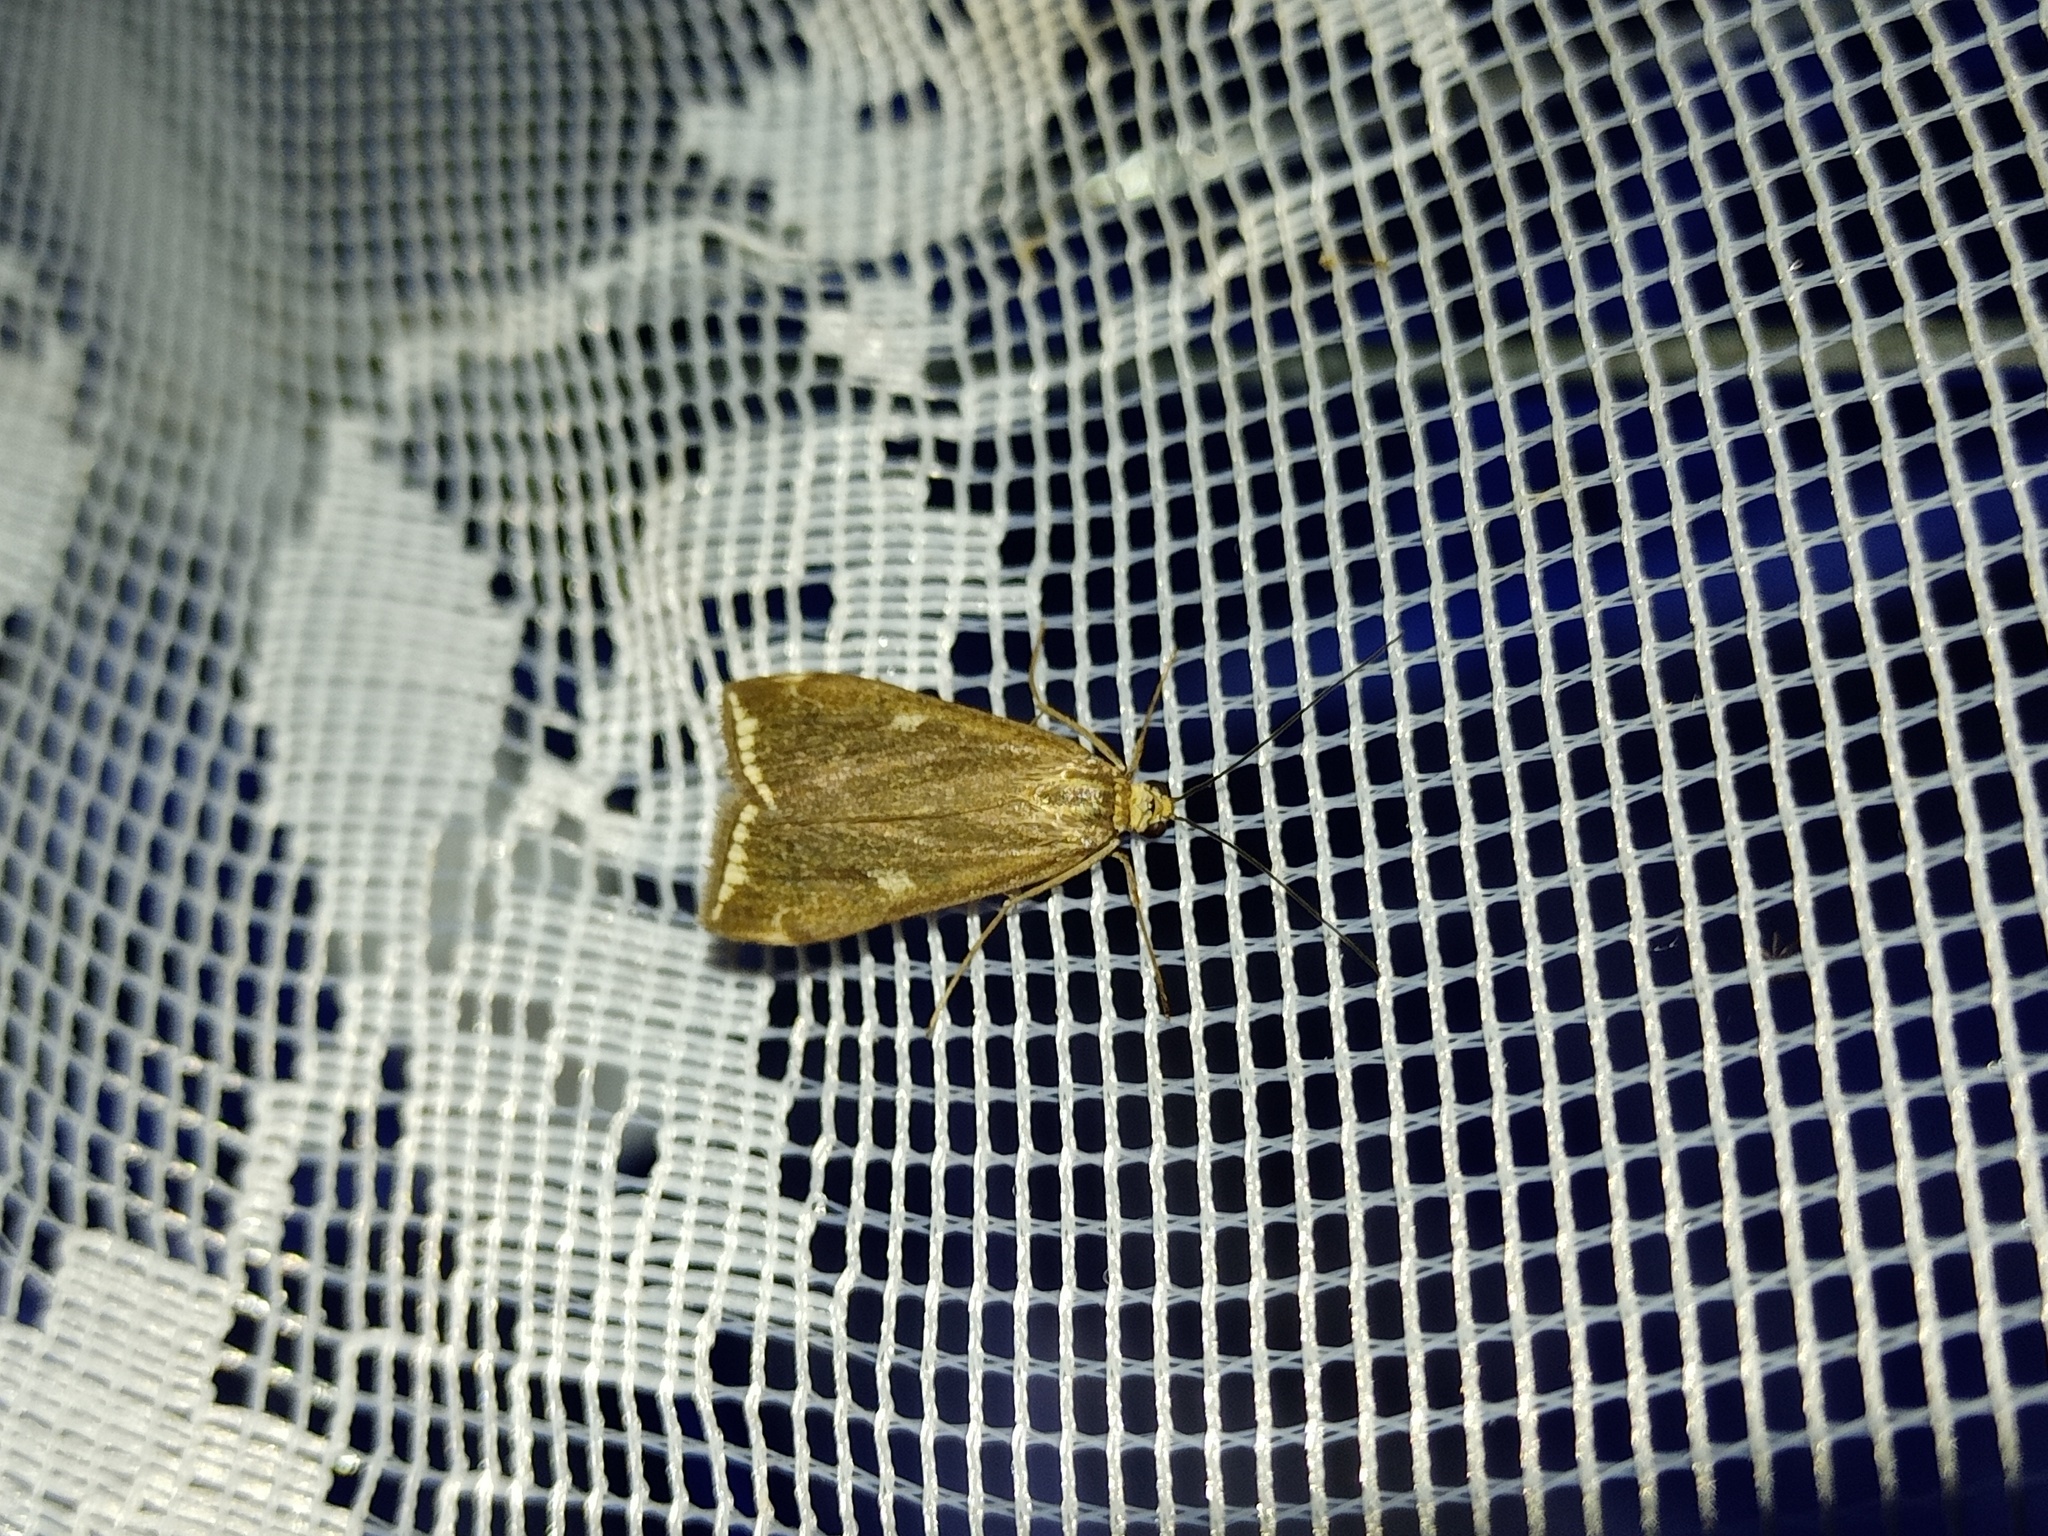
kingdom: Animalia
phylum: Arthropoda
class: Insecta
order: Lepidoptera
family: Crambidae
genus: Loxostege
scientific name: Loxostege sticticalis
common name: Crambid moth
